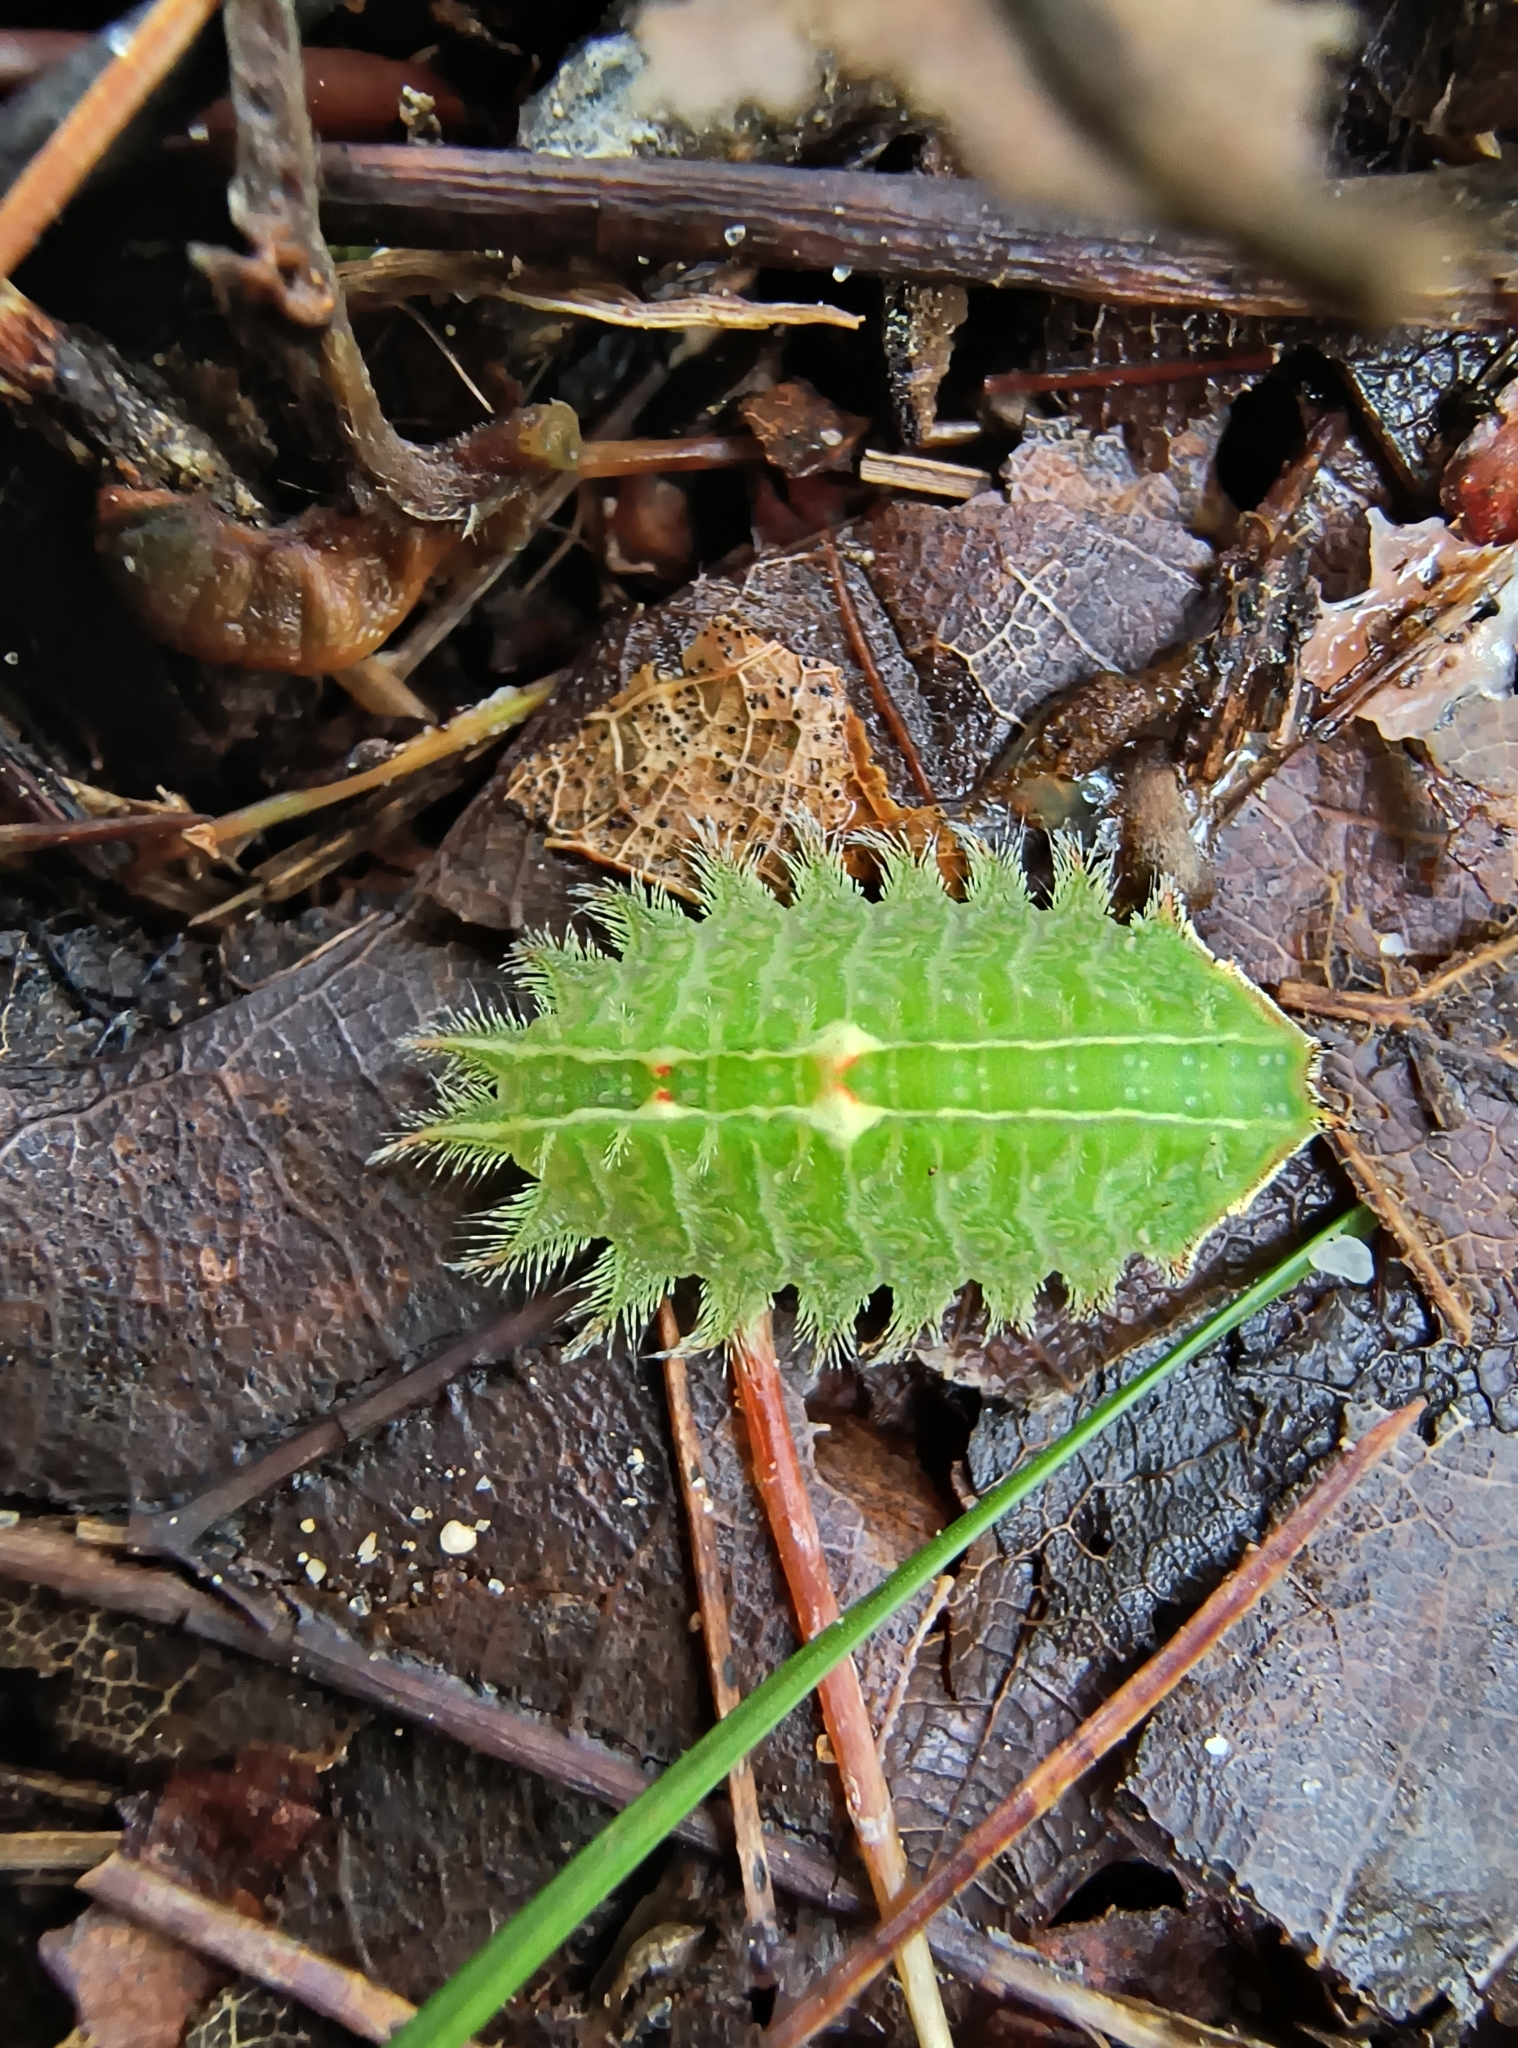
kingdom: Animalia
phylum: Arthropoda
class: Insecta
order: Lepidoptera
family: Limacodidae
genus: Isa
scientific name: Isa textula
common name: Crowned slug moth
